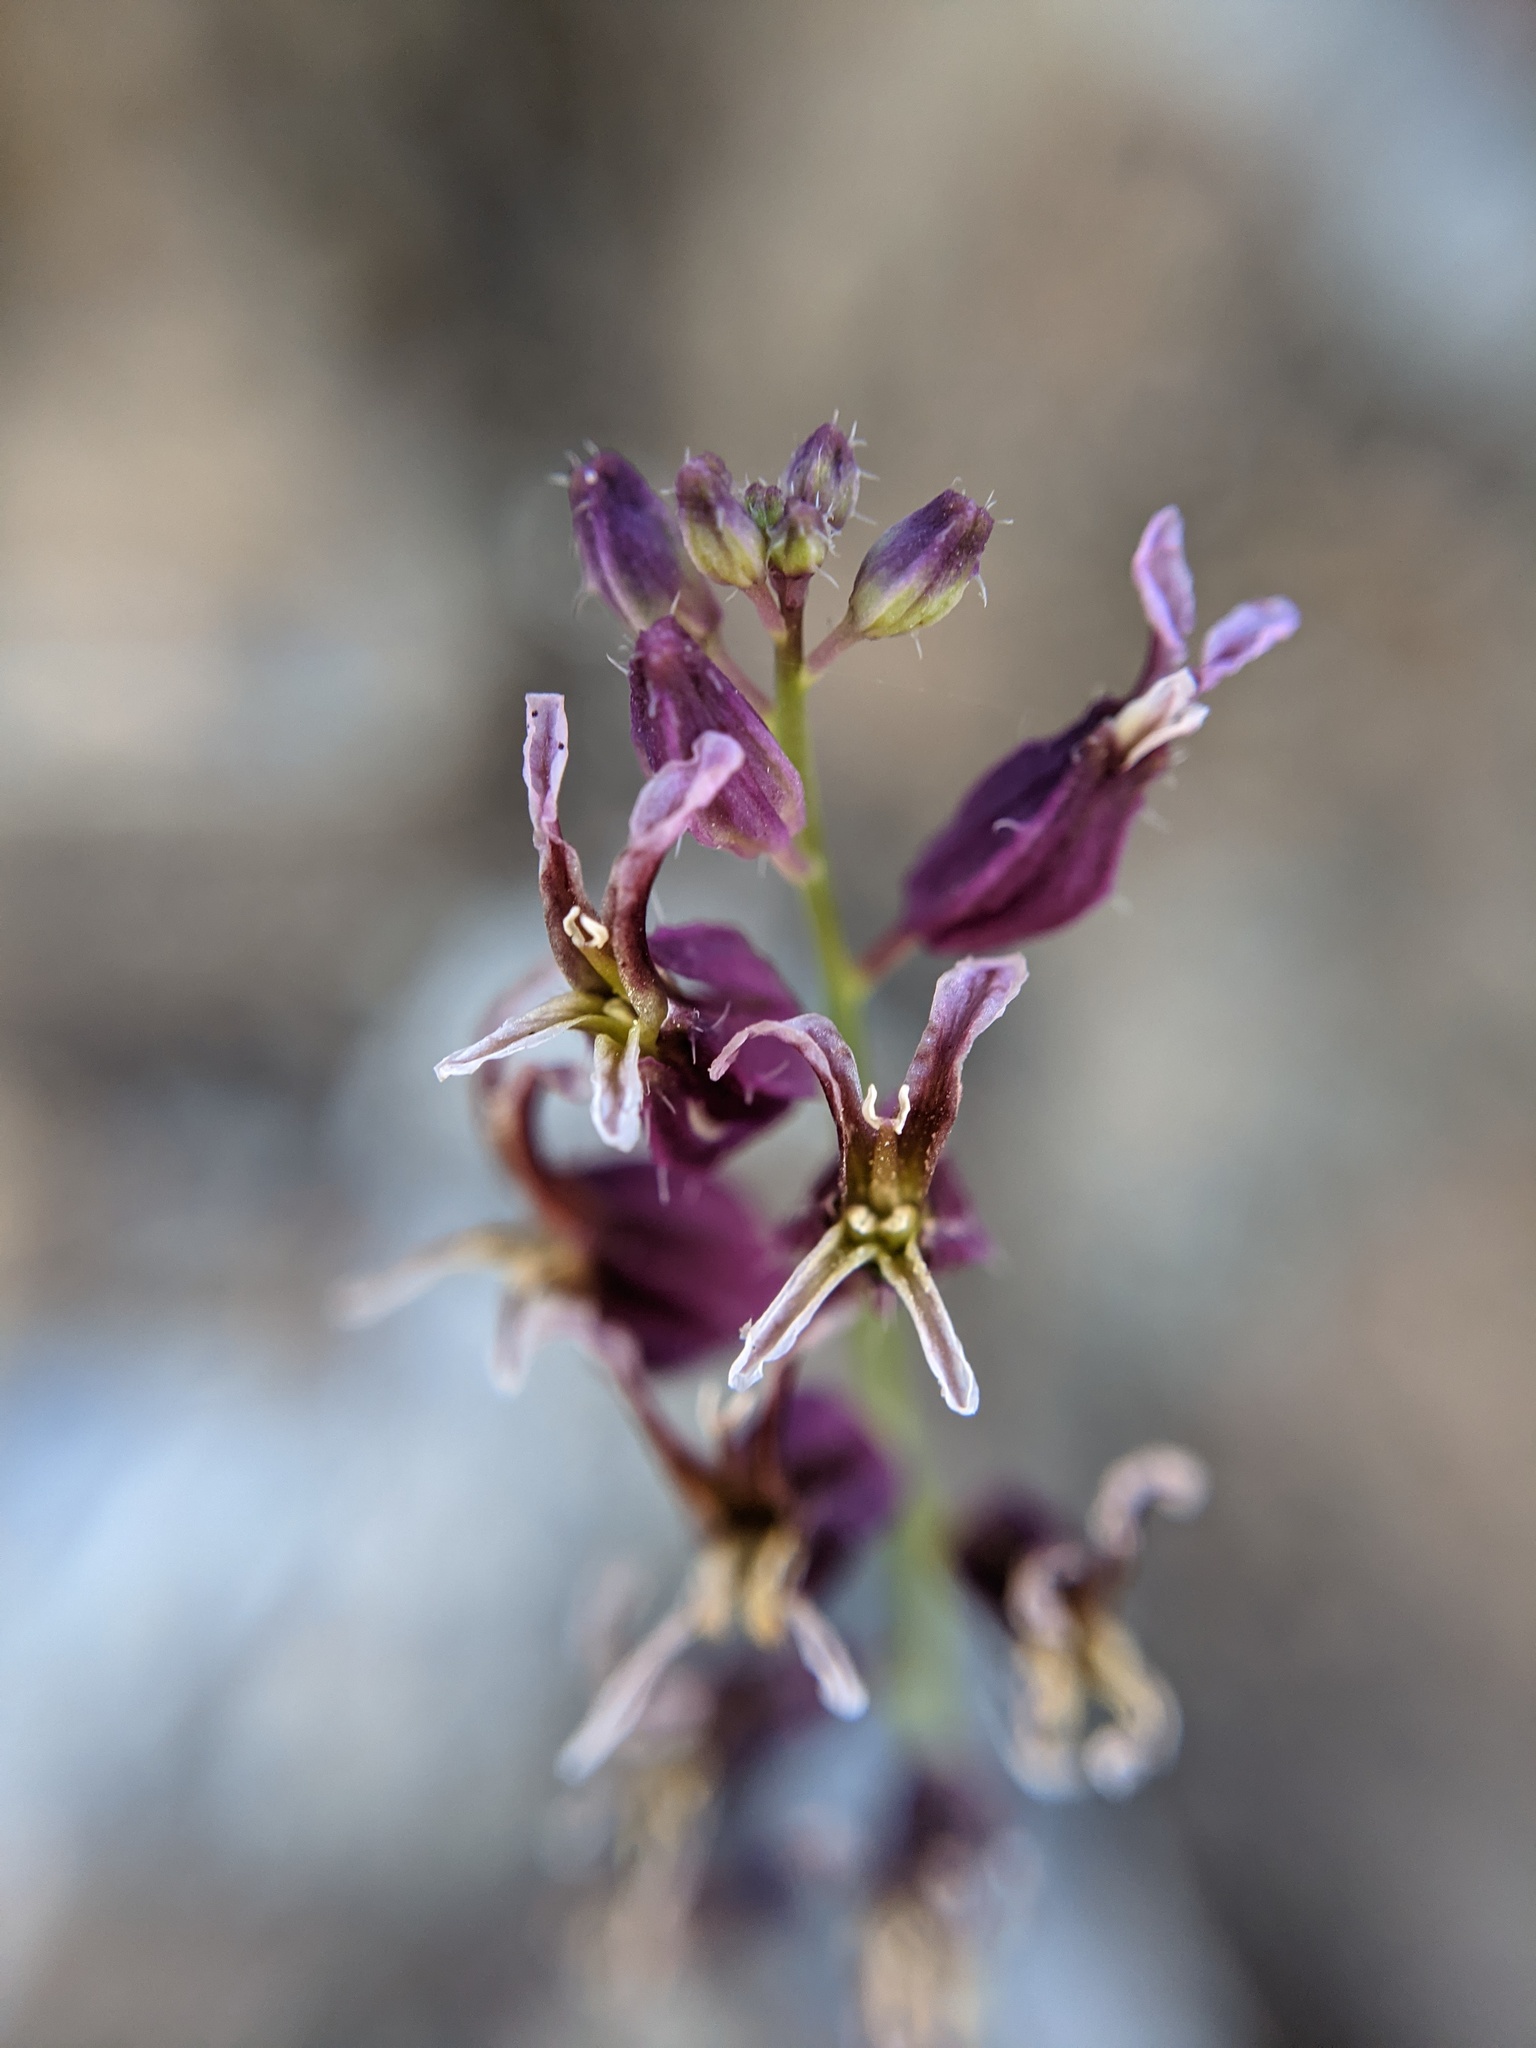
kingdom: Plantae
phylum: Tracheophyta
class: Magnoliopsida
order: Brassicales
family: Brassicaceae
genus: Streptanthus
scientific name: Streptanthus glandulosus
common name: Jewel-flower
